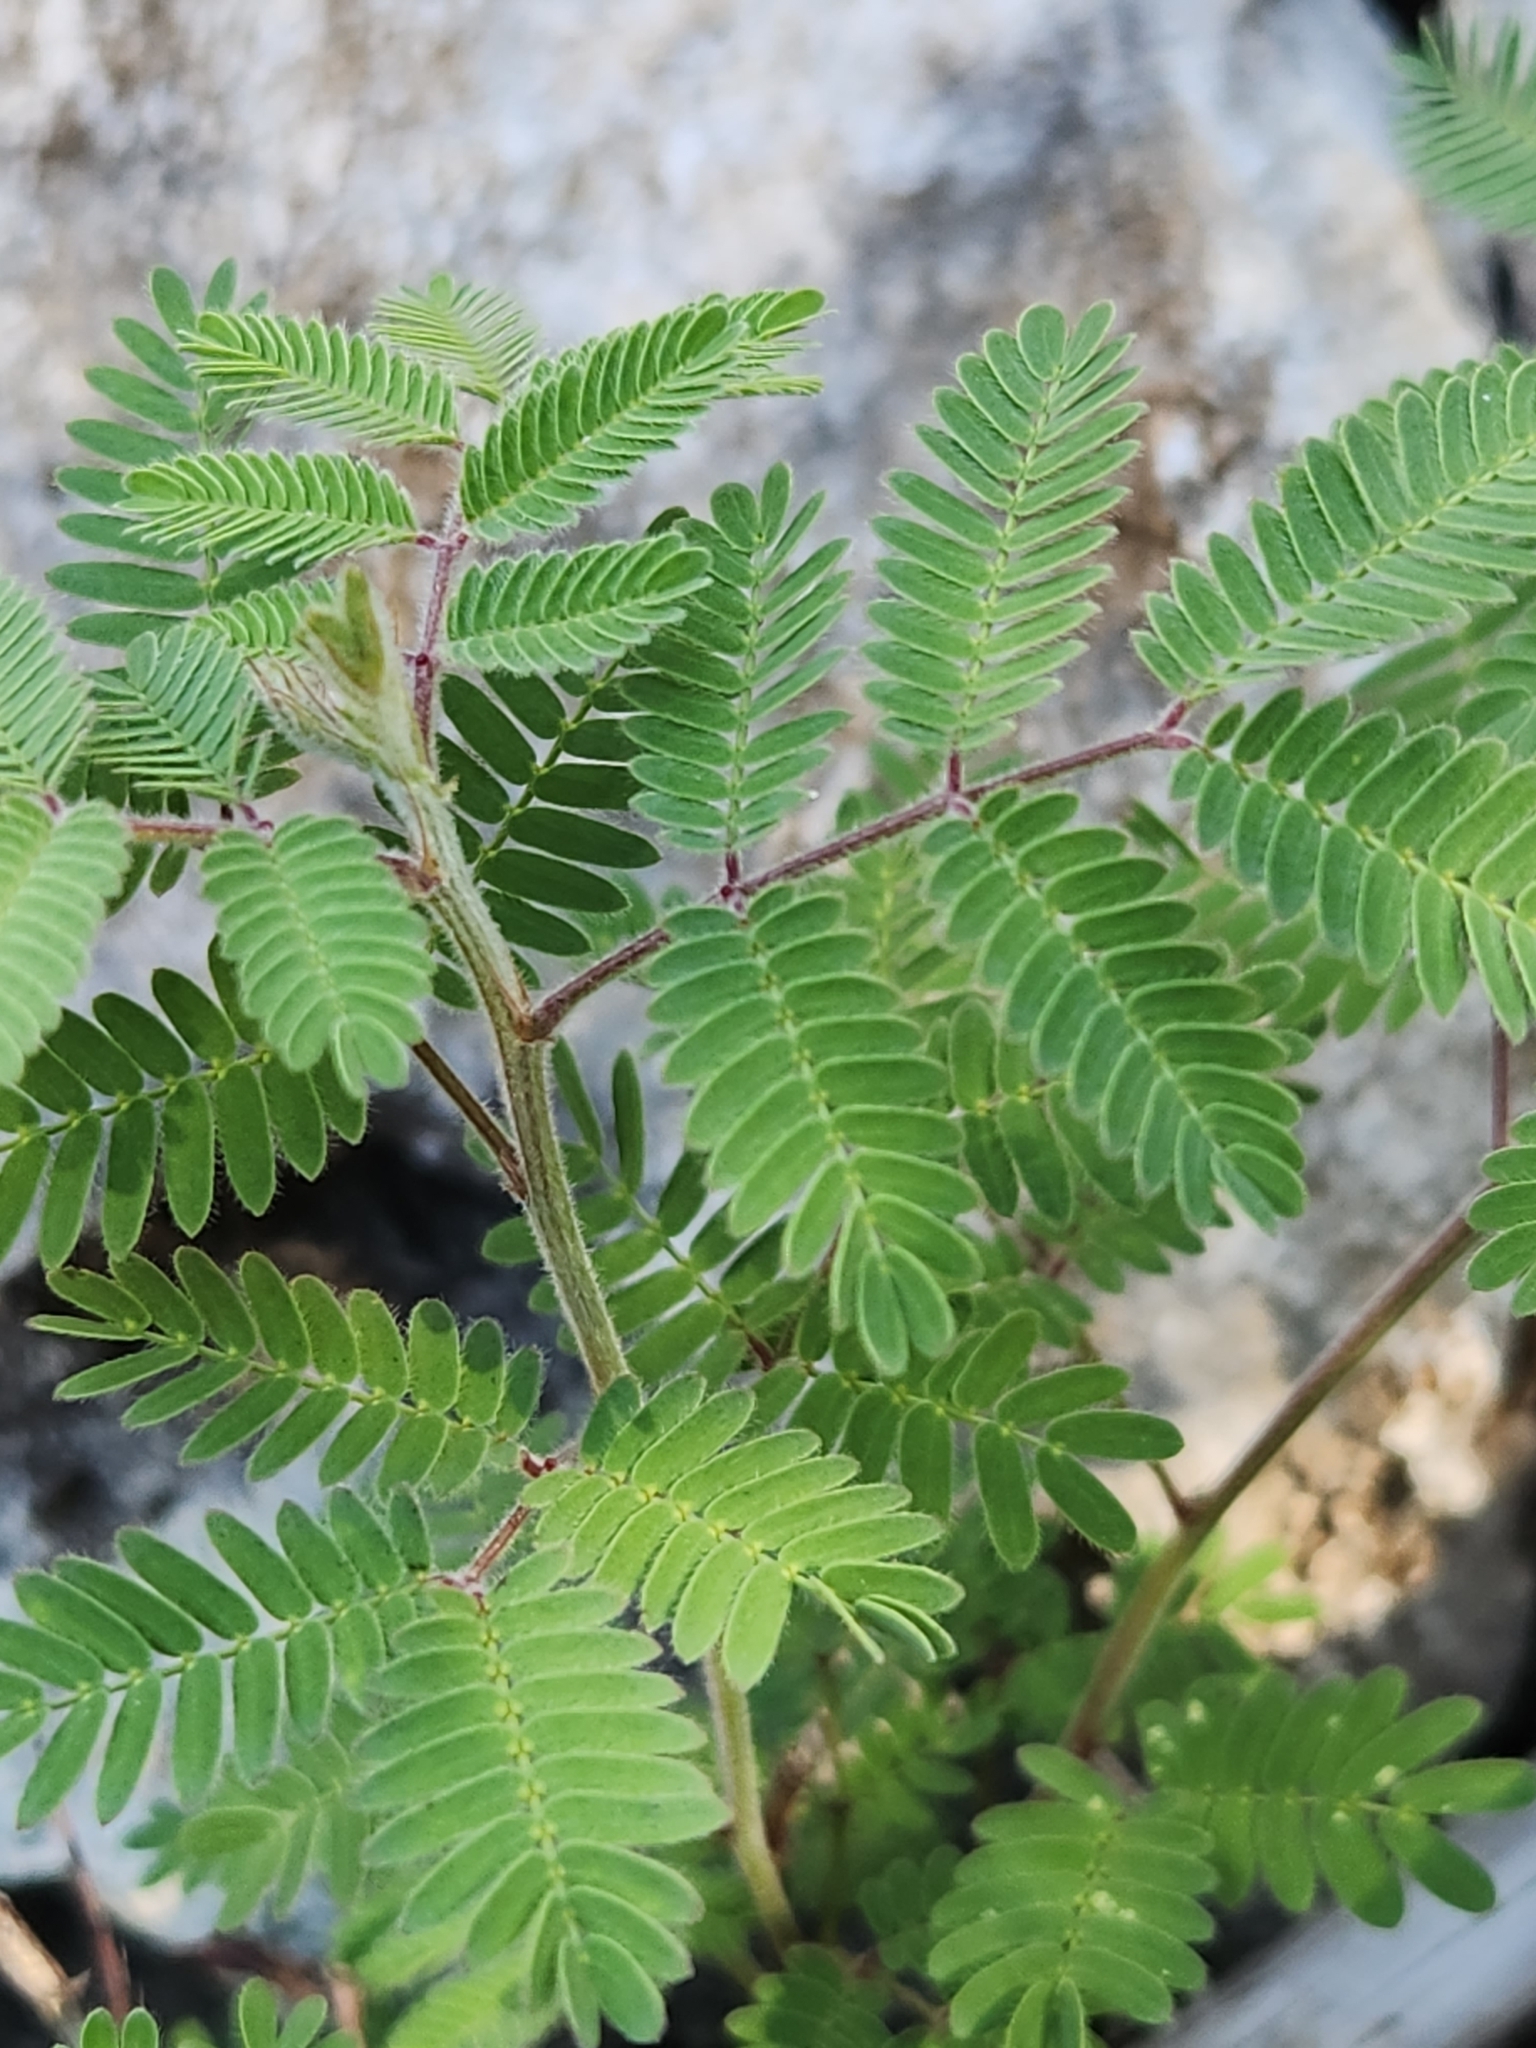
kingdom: Plantae
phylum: Tracheophyta
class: Magnoliopsida
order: Fabales
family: Fabaceae
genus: Desmanthus
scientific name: Desmanthus velutinus
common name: Velvet bundle-flower
